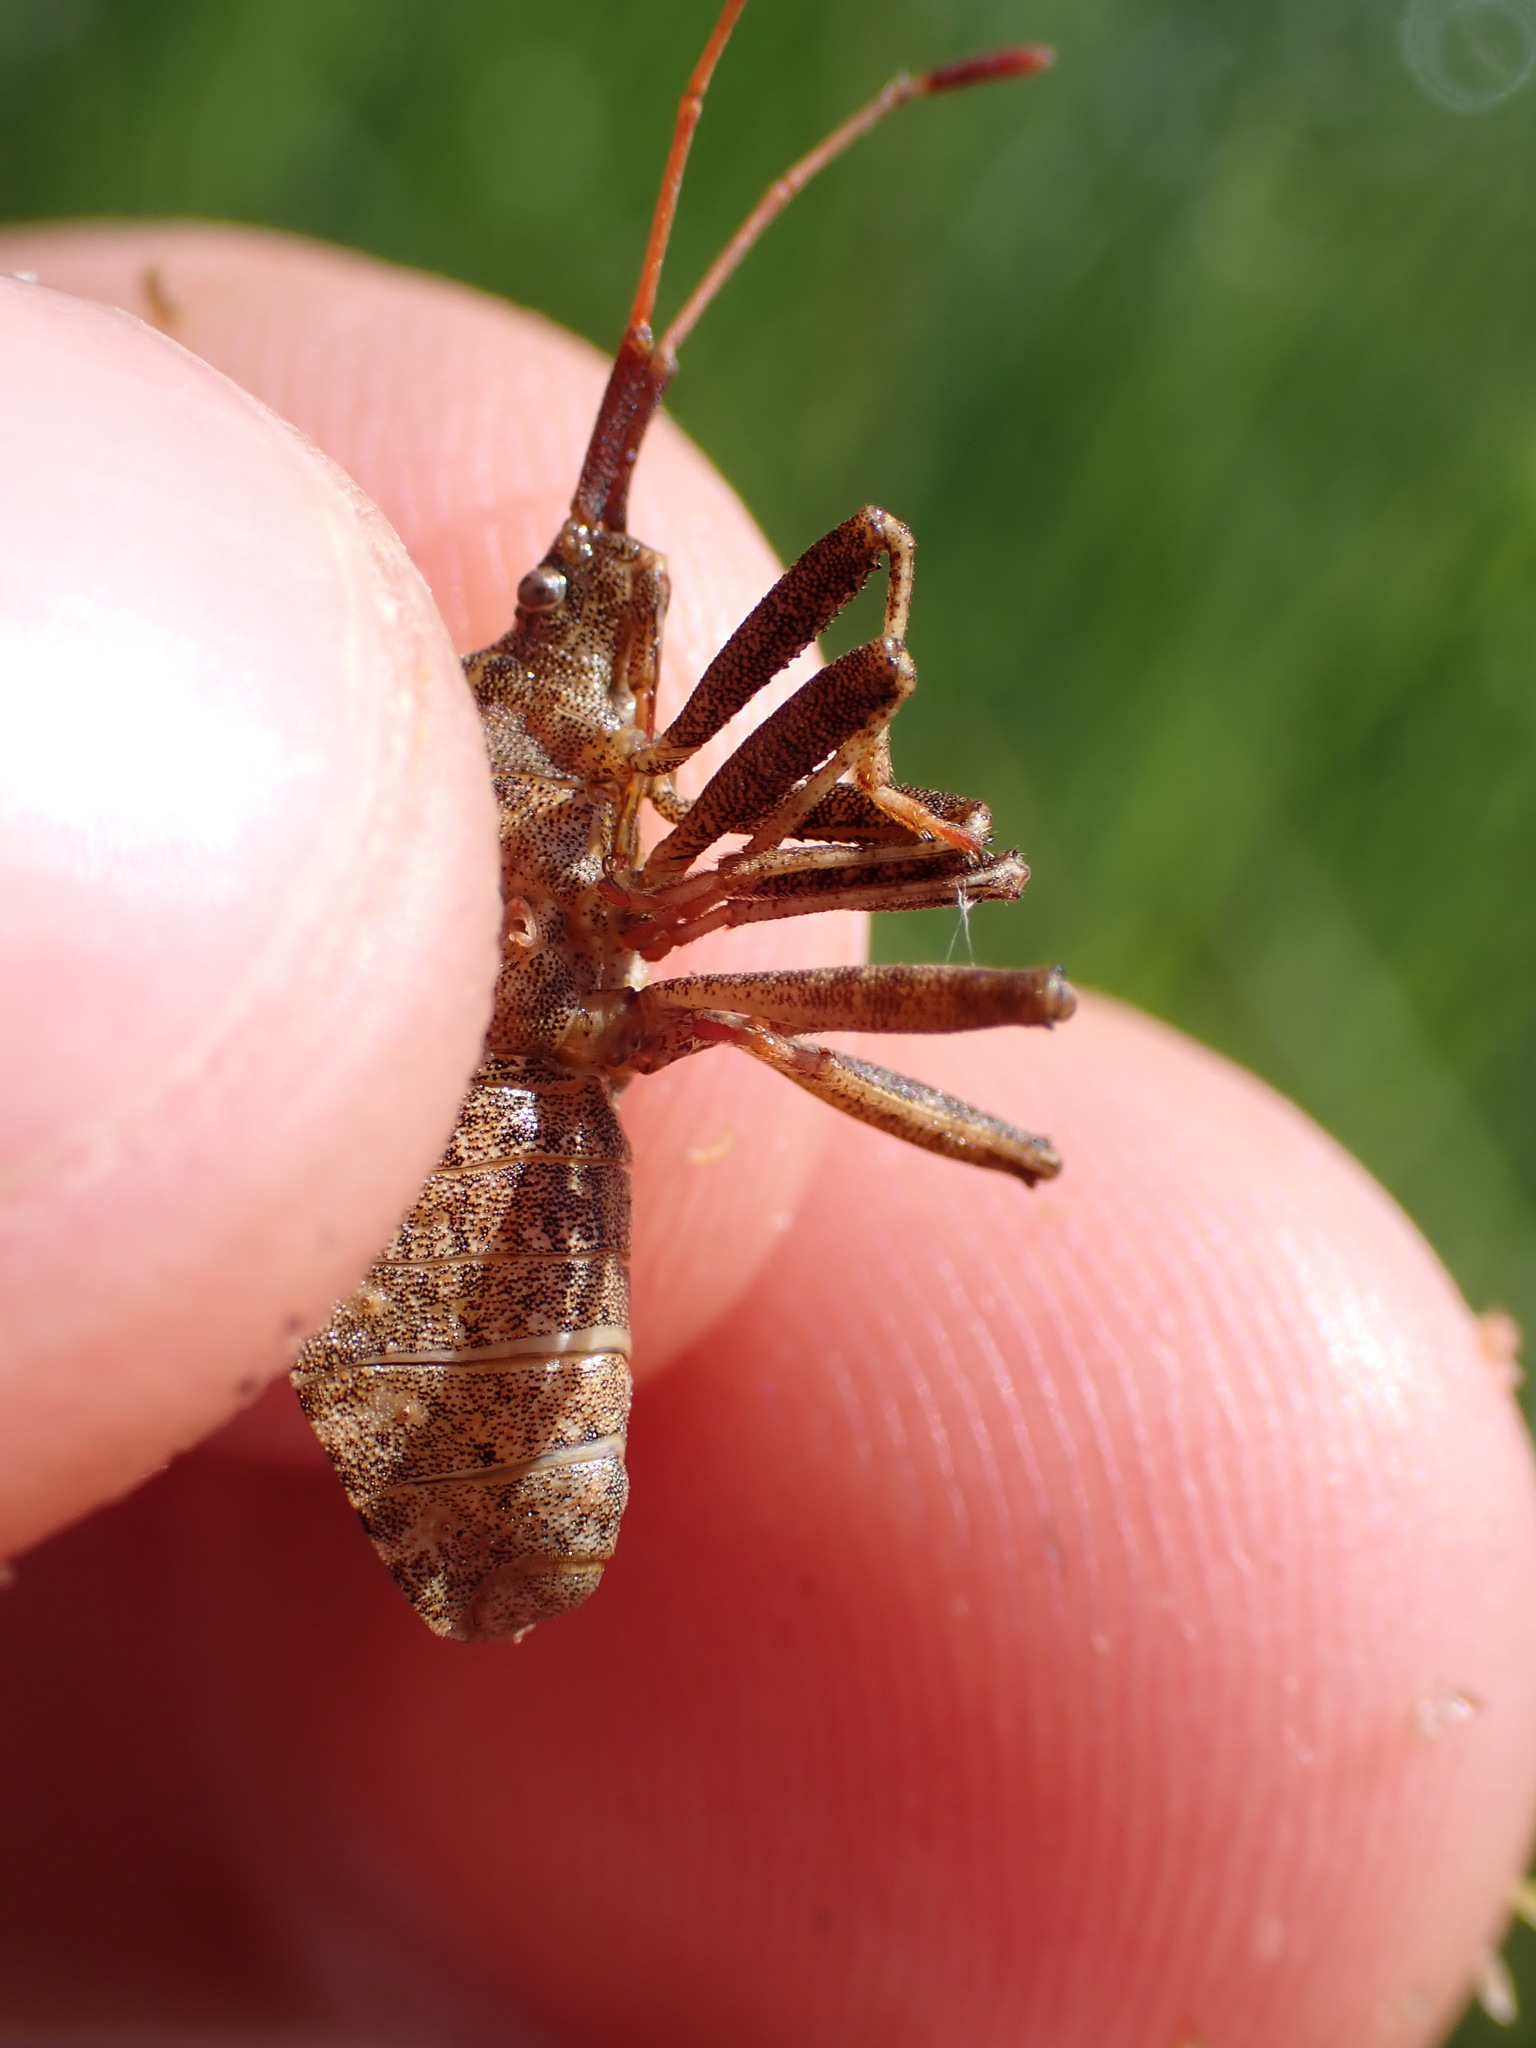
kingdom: Animalia
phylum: Arthropoda
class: Insecta
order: Hemiptera
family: Coreidae
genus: Coreus
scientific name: Coreus marginatus
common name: Dock bug
